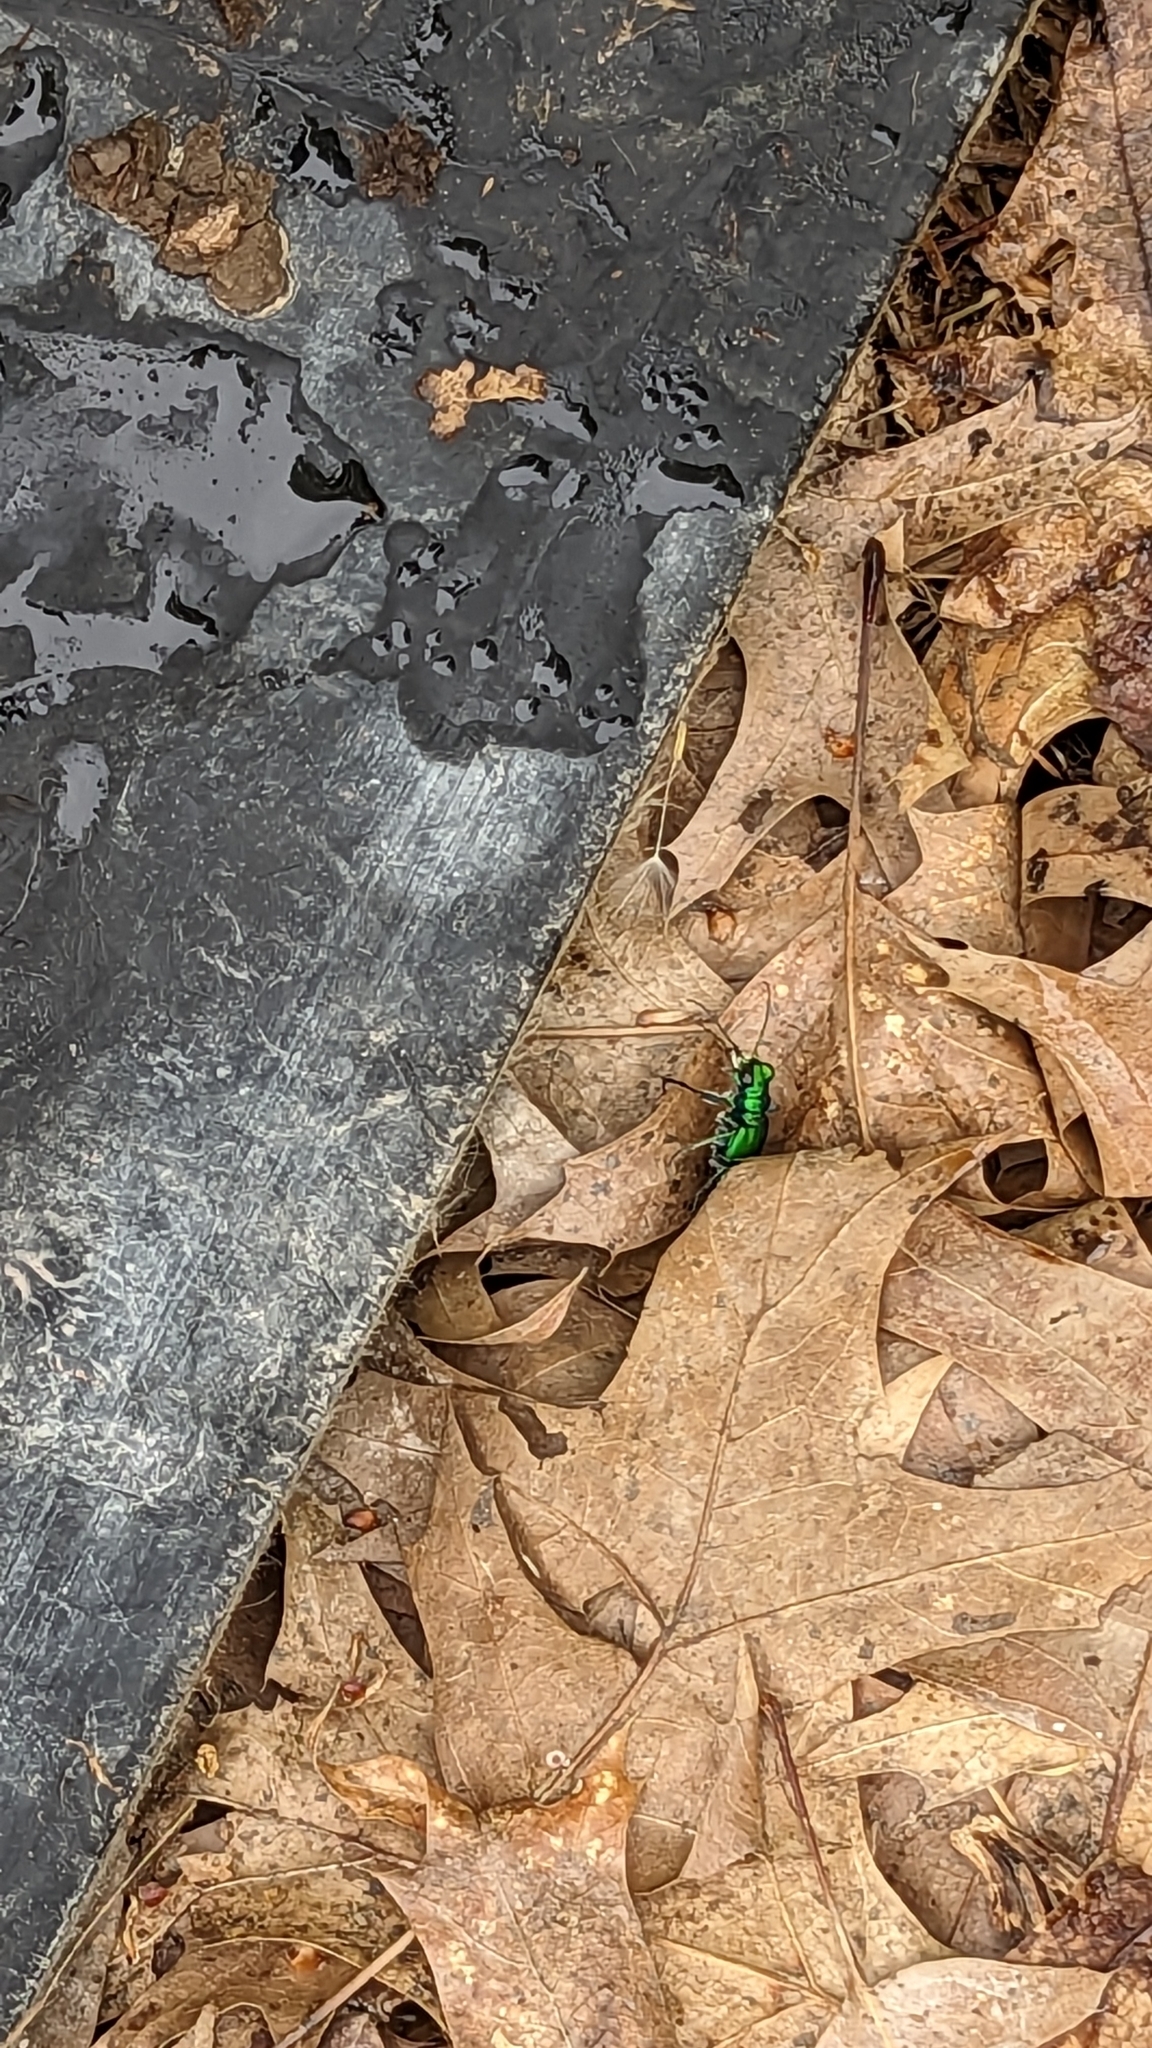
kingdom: Animalia
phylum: Arthropoda
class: Insecta
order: Coleoptera
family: Carabidae
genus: Cicindela
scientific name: Cicindela sexguttata
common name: Six-spotted tiger beetle
